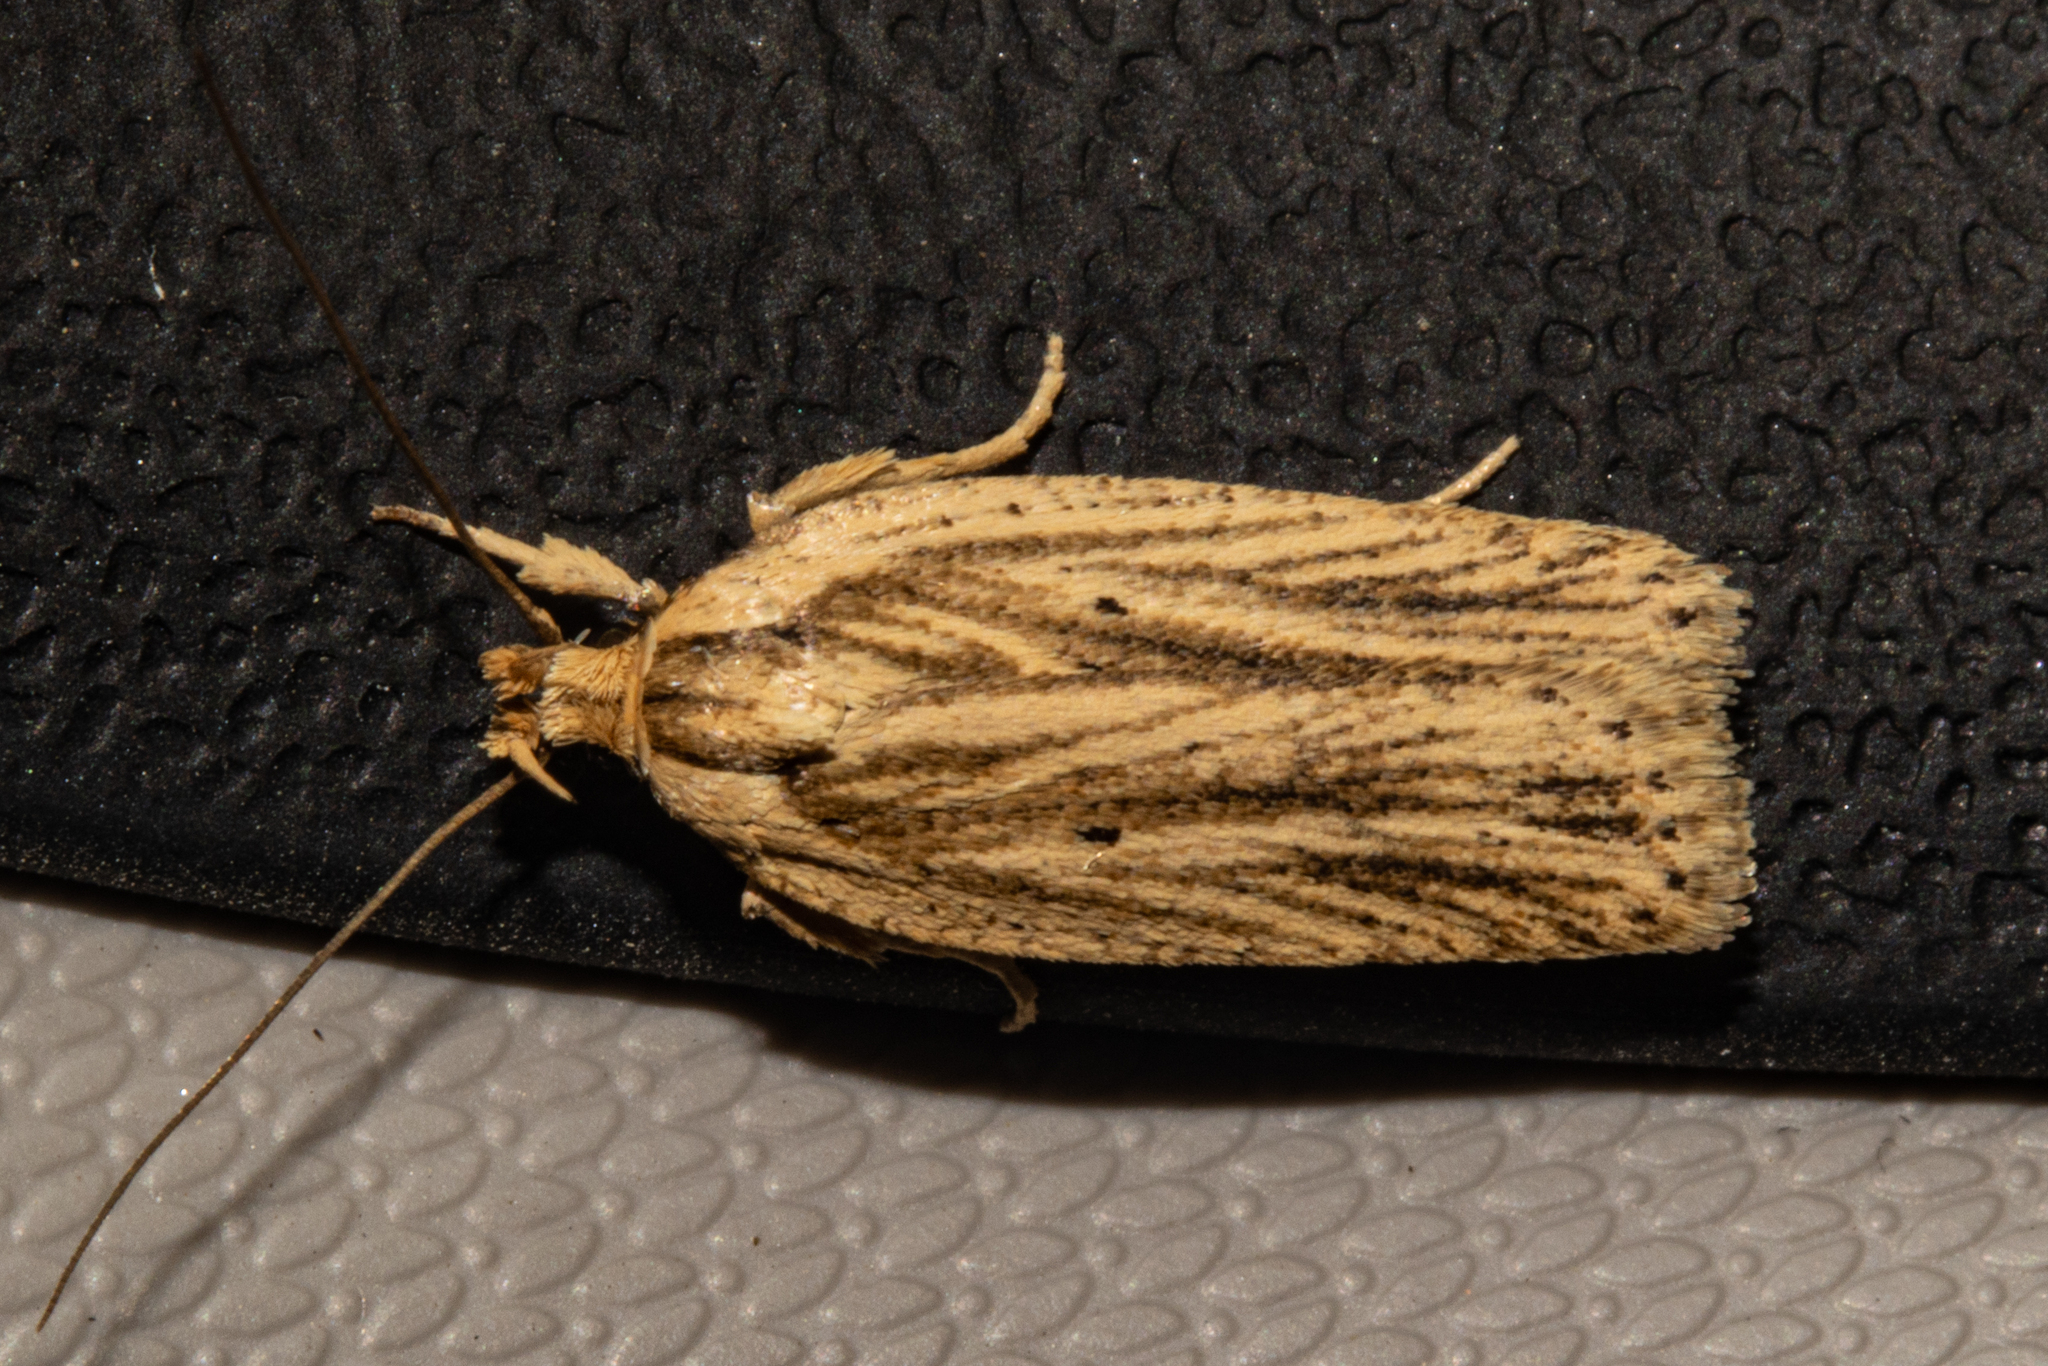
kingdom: Animalia
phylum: Arthropoda
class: Insecta
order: Lepidoptera
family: Depressariidae
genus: Agonopterix
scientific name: Agonopterix
